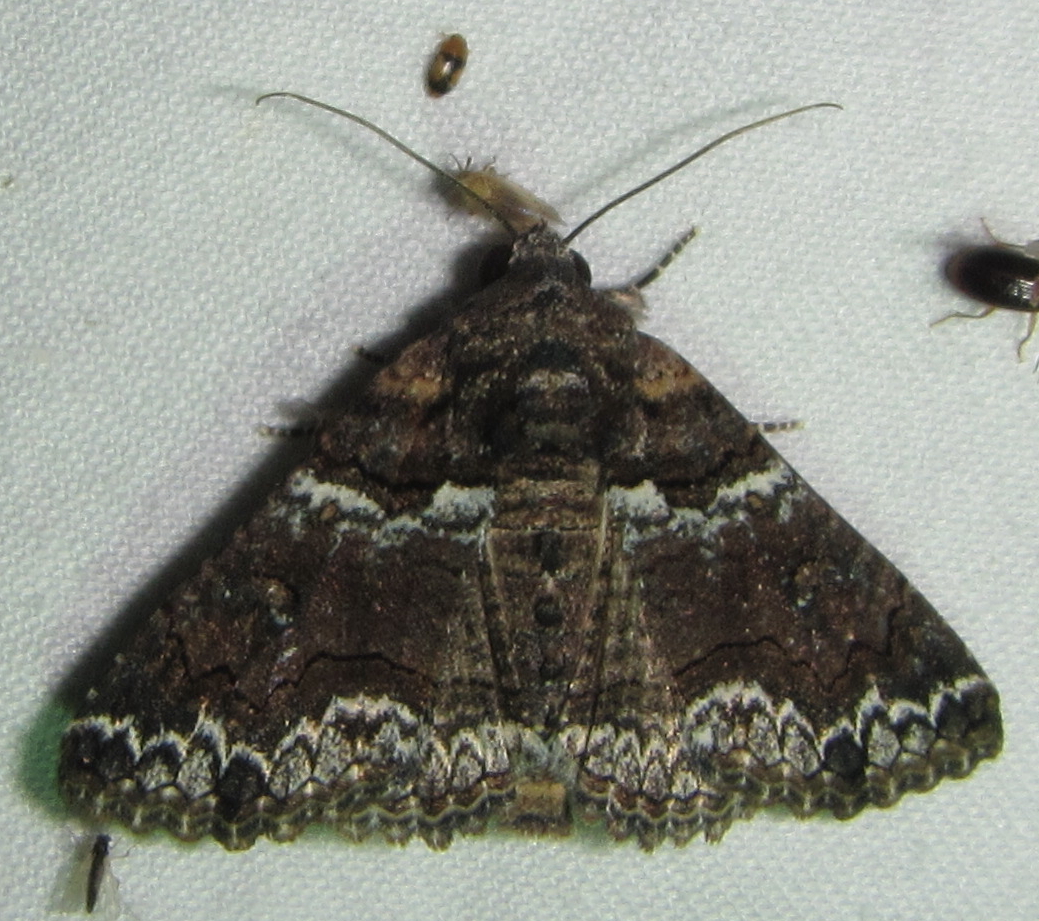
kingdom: Animalia
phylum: Arthropoda
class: Insecta
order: Lepidoptera
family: Erebidae
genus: Pericyma
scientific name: Pericyma atrifusa
